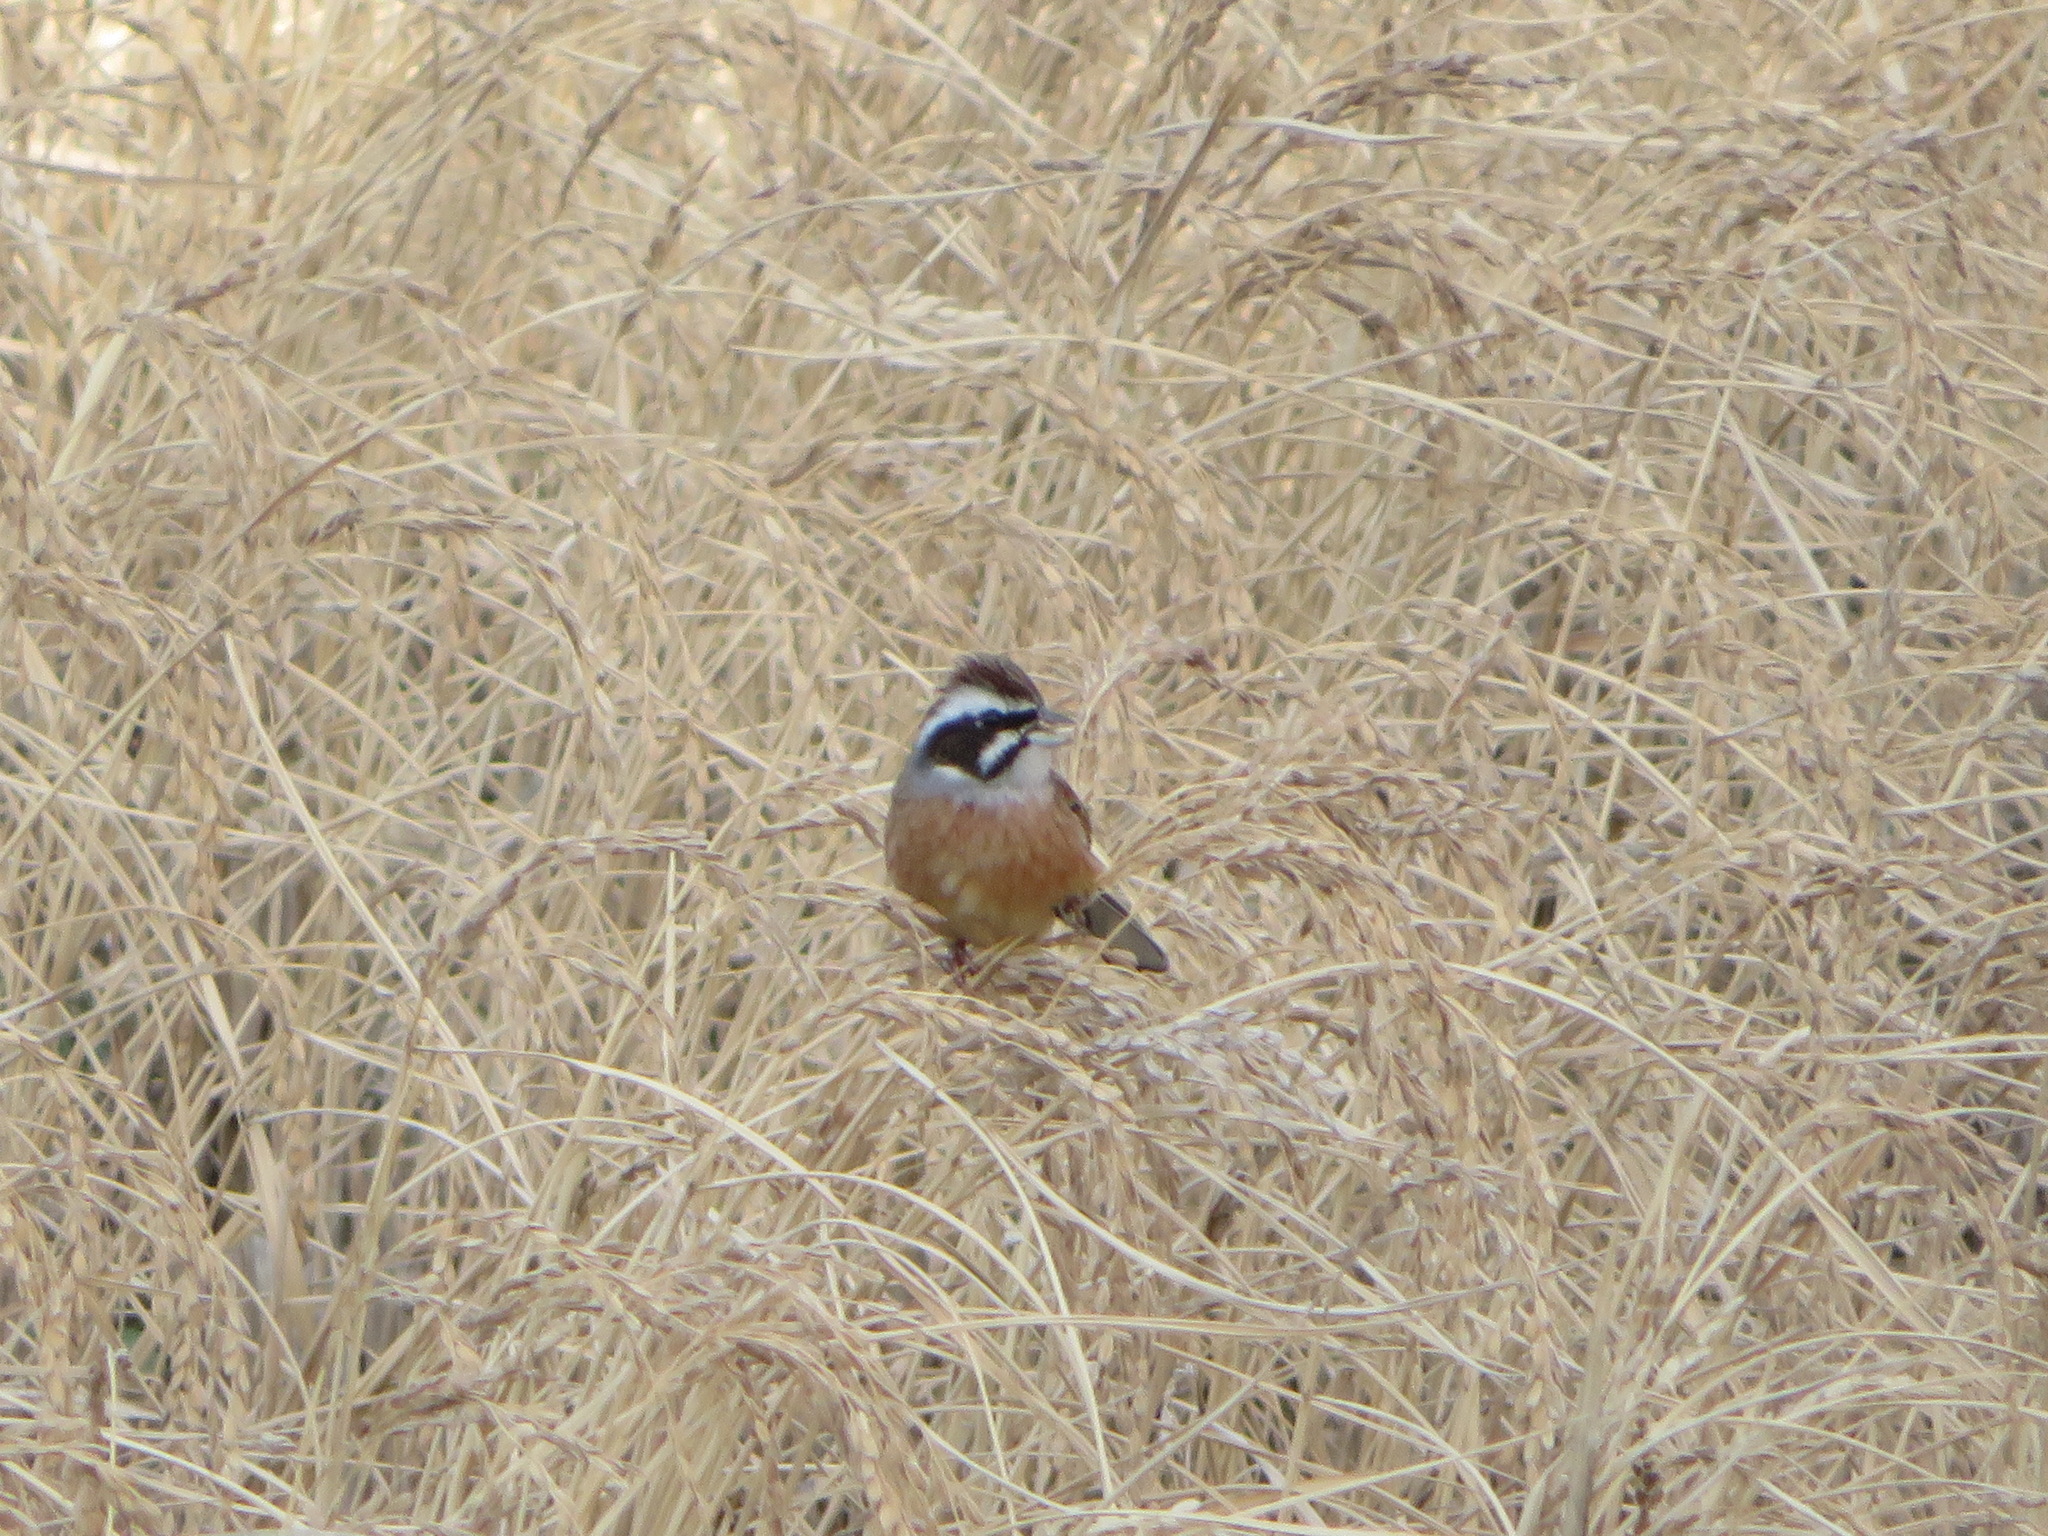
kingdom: Animalia
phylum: Chordata
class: Aves
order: Passeriformes
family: Emberizidae
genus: Emberiza
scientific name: Emberiza cioides
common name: Meadow bunting
